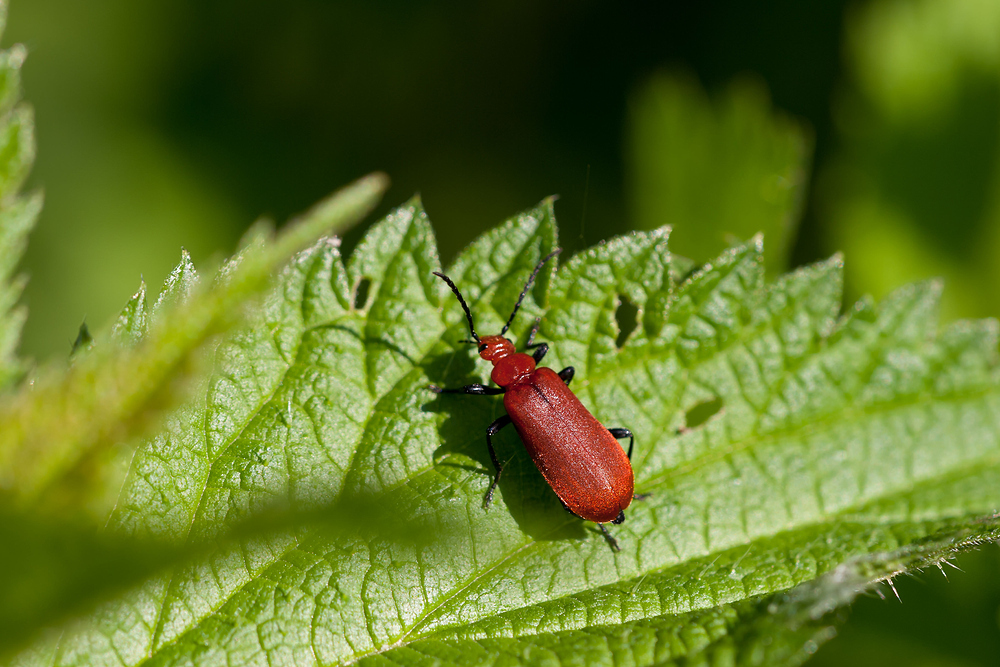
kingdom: Animalia
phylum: Arthropoda
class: Insecta
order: Coleoptera
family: Pyrochroidae
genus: Pyrochroa
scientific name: Pyrochroa serraticornis
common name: Red-headed cardinal beetle
